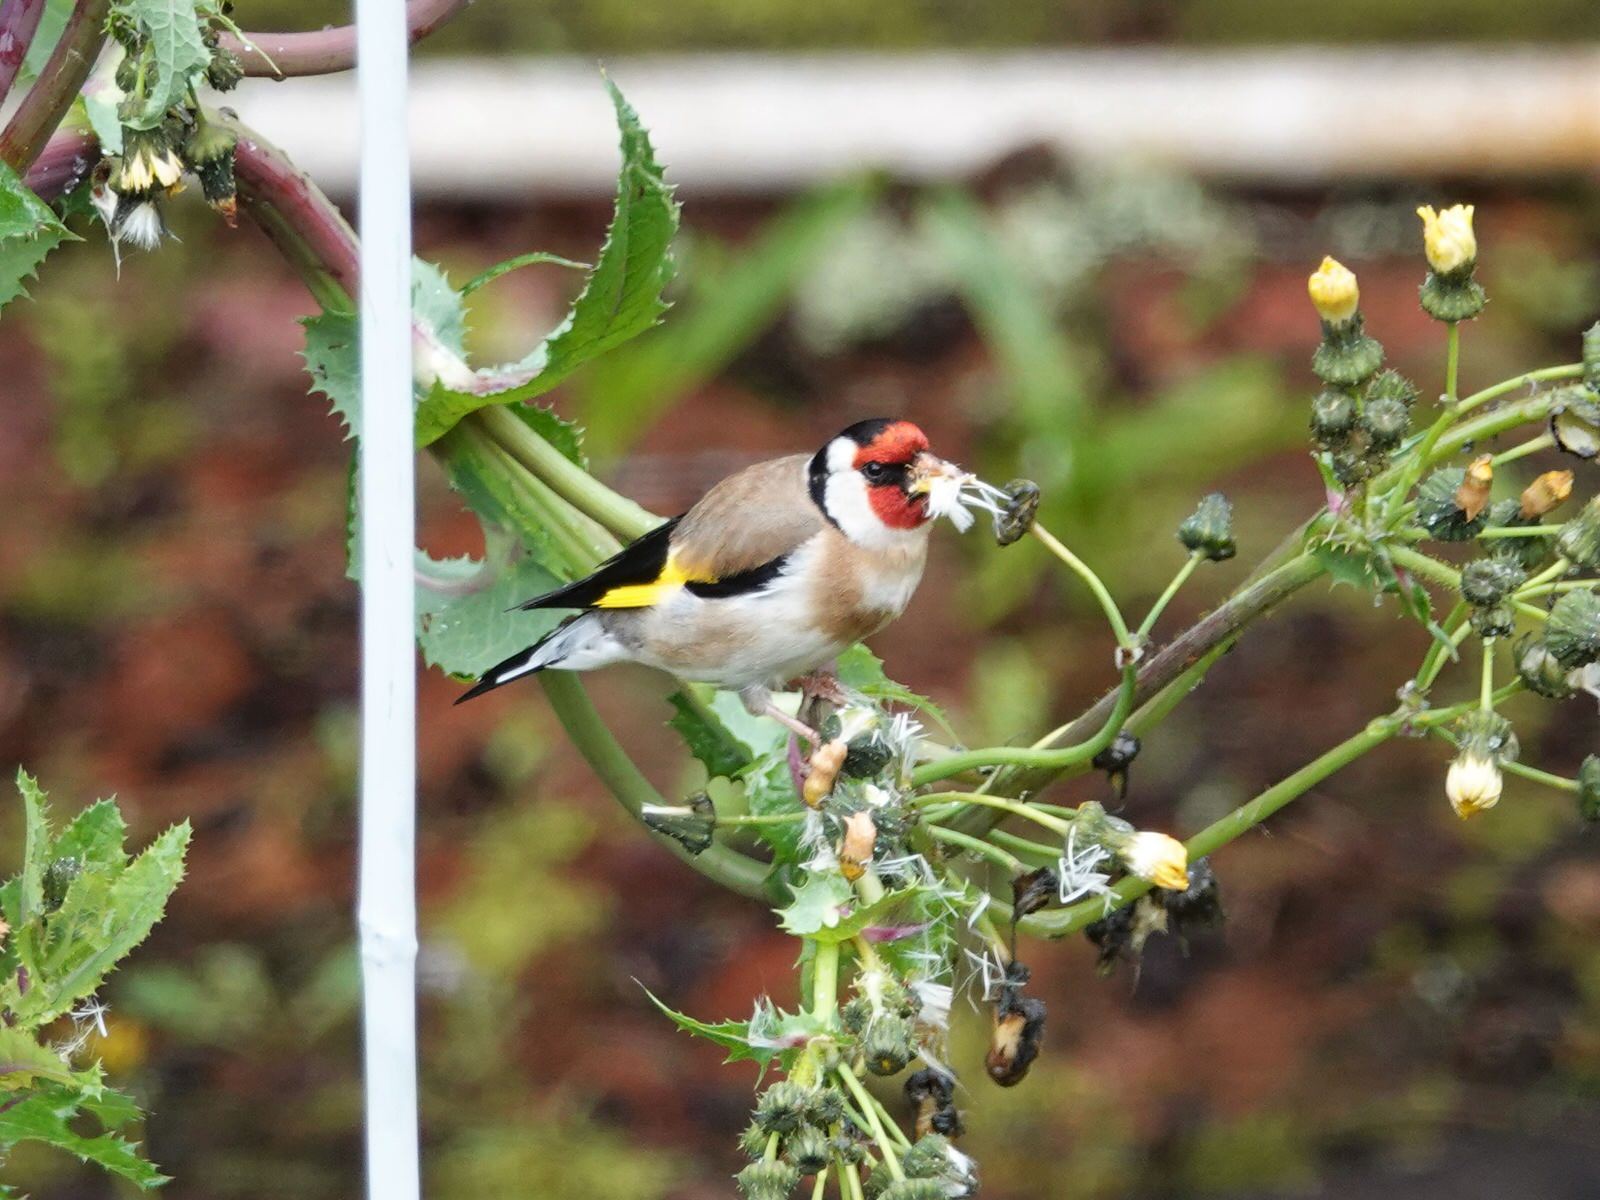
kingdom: Animalia
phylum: Chordata
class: Aves
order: Passeriformes
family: Fringillidae
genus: Carduelis
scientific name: Carduelis carduelis
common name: European goldfinch
